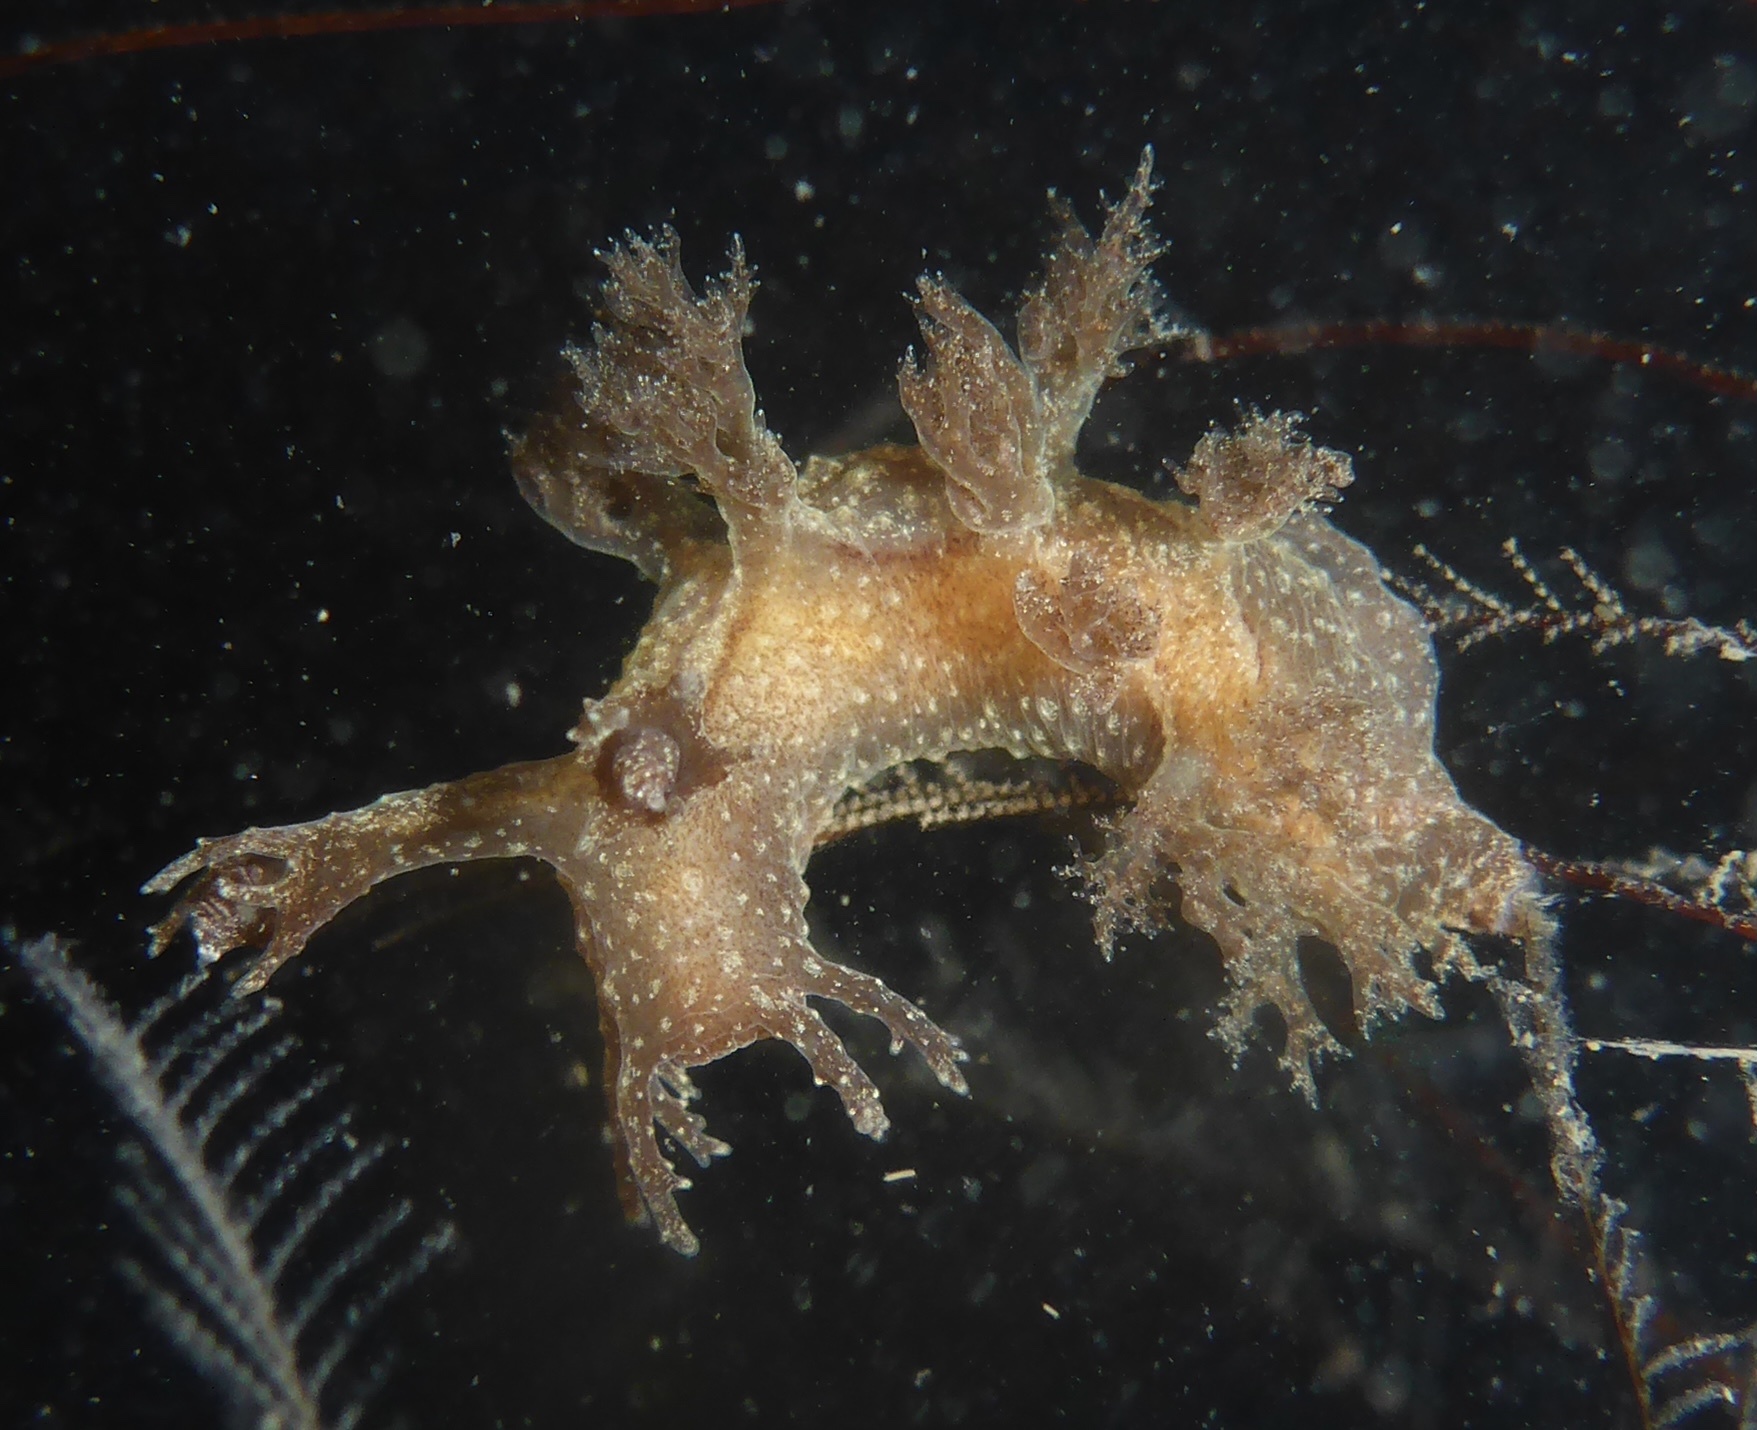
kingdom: Animalia
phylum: Mollusca
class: Gastropoda
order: Nudibranchia
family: Dendronotidae
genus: Dendronotus
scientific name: Dendronotus subramosus
